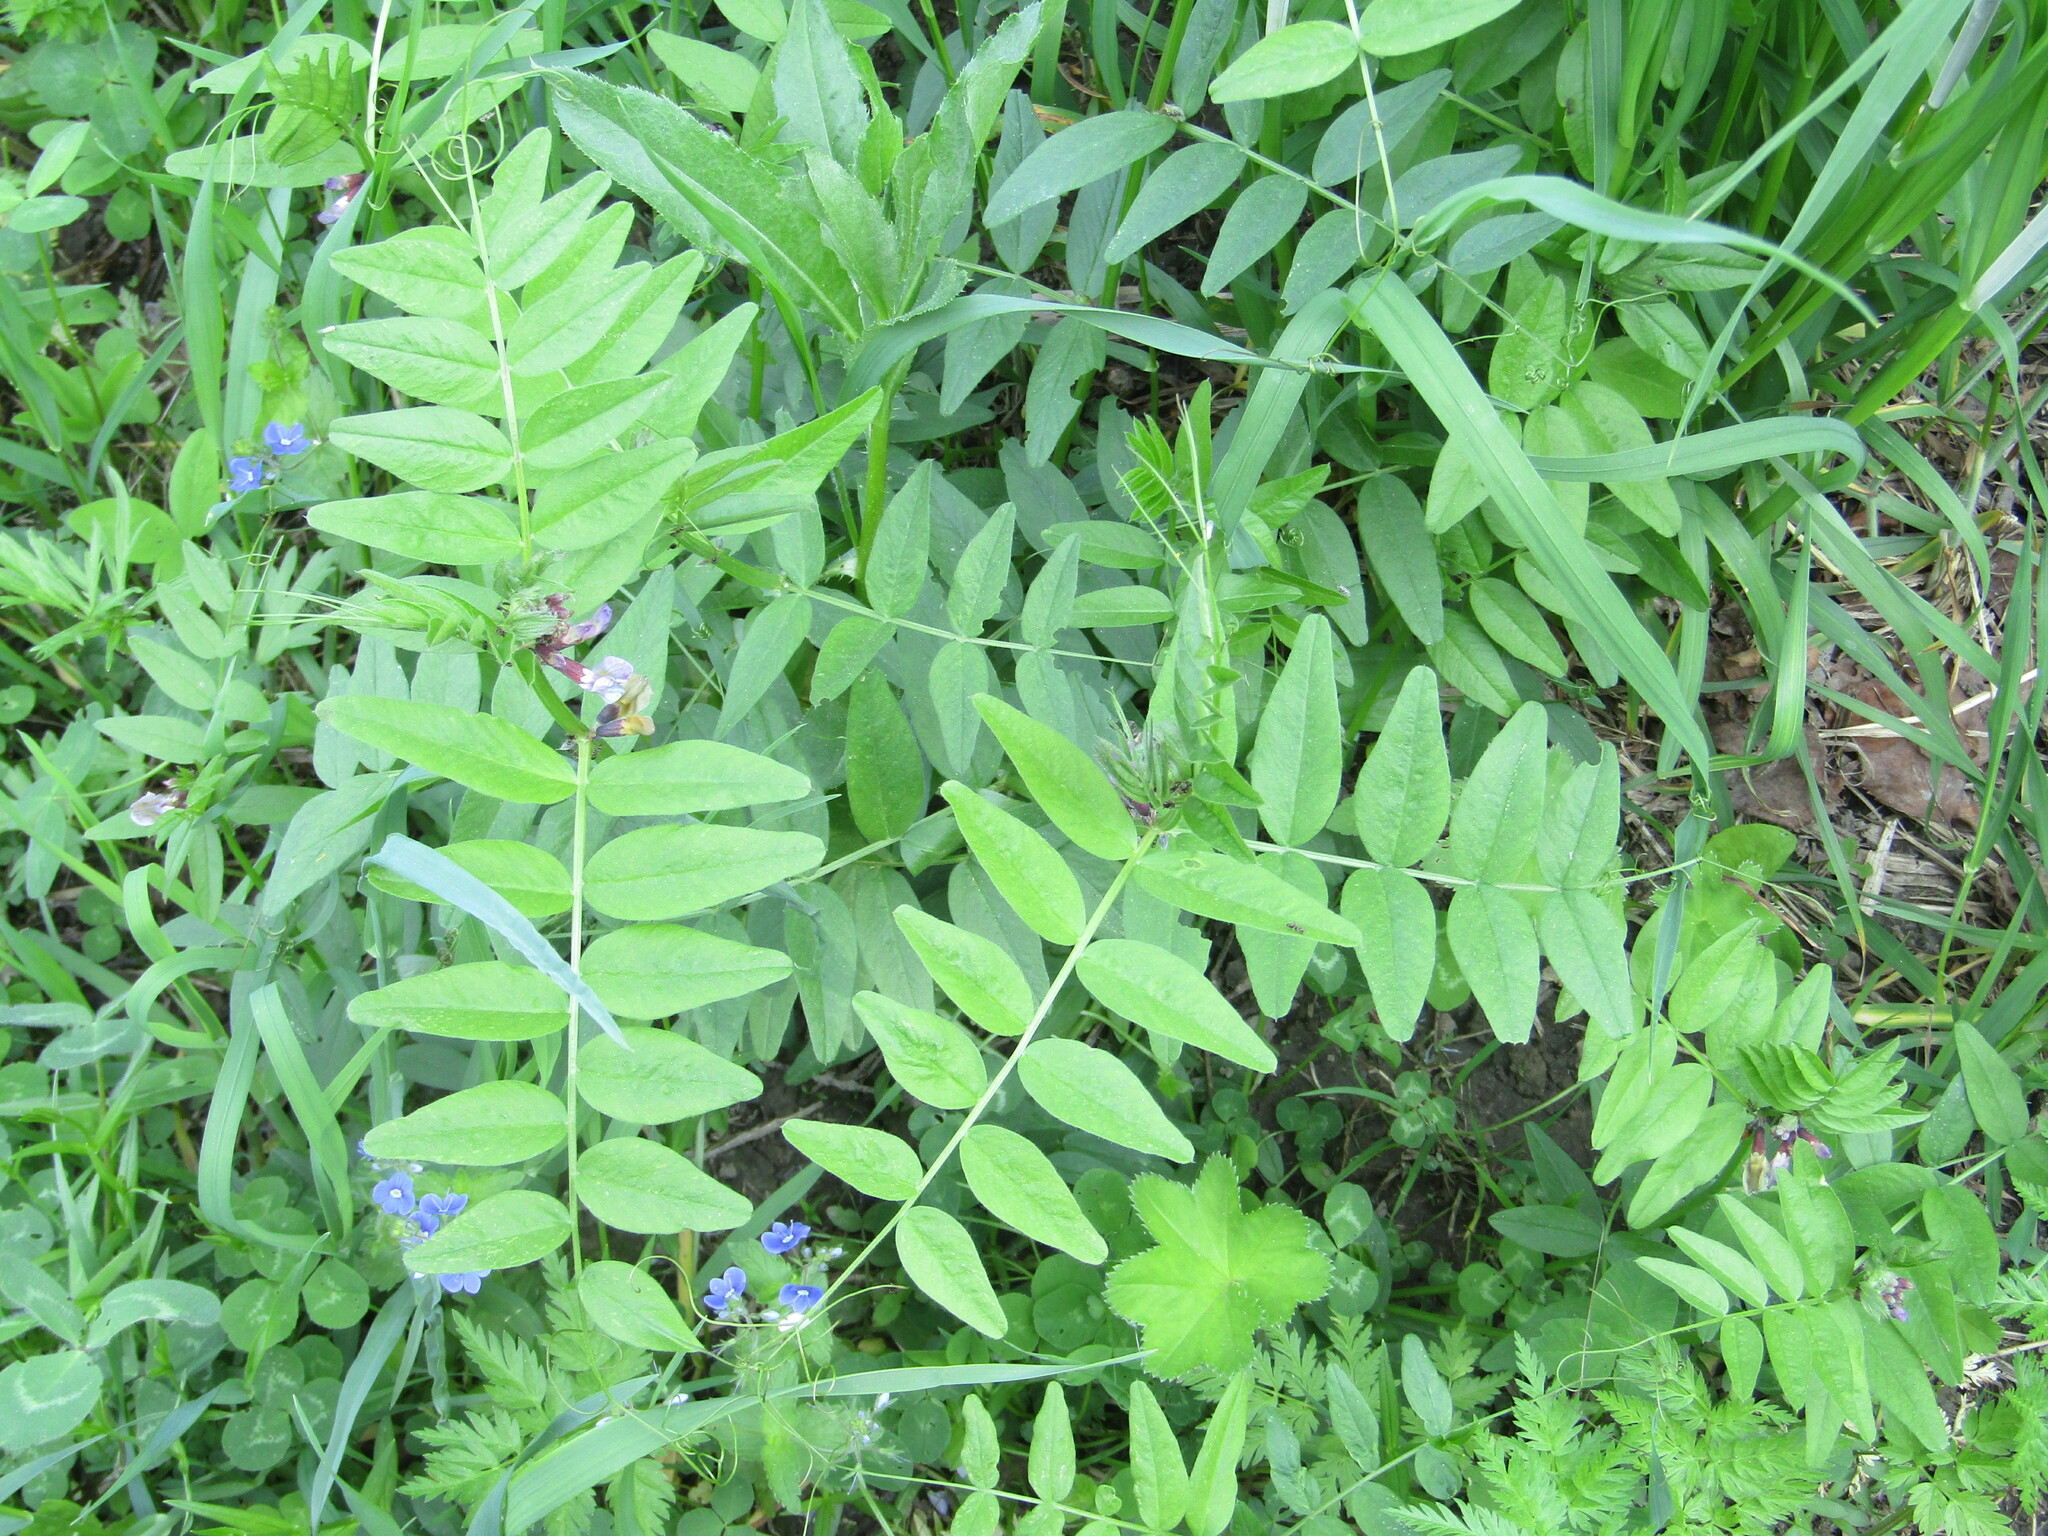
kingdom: Plantae
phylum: Tracheophyta
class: Magnoliopsida
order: Fabales
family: Fabaceae
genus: Vicia
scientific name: Vicia sepium
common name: Bush vetch
